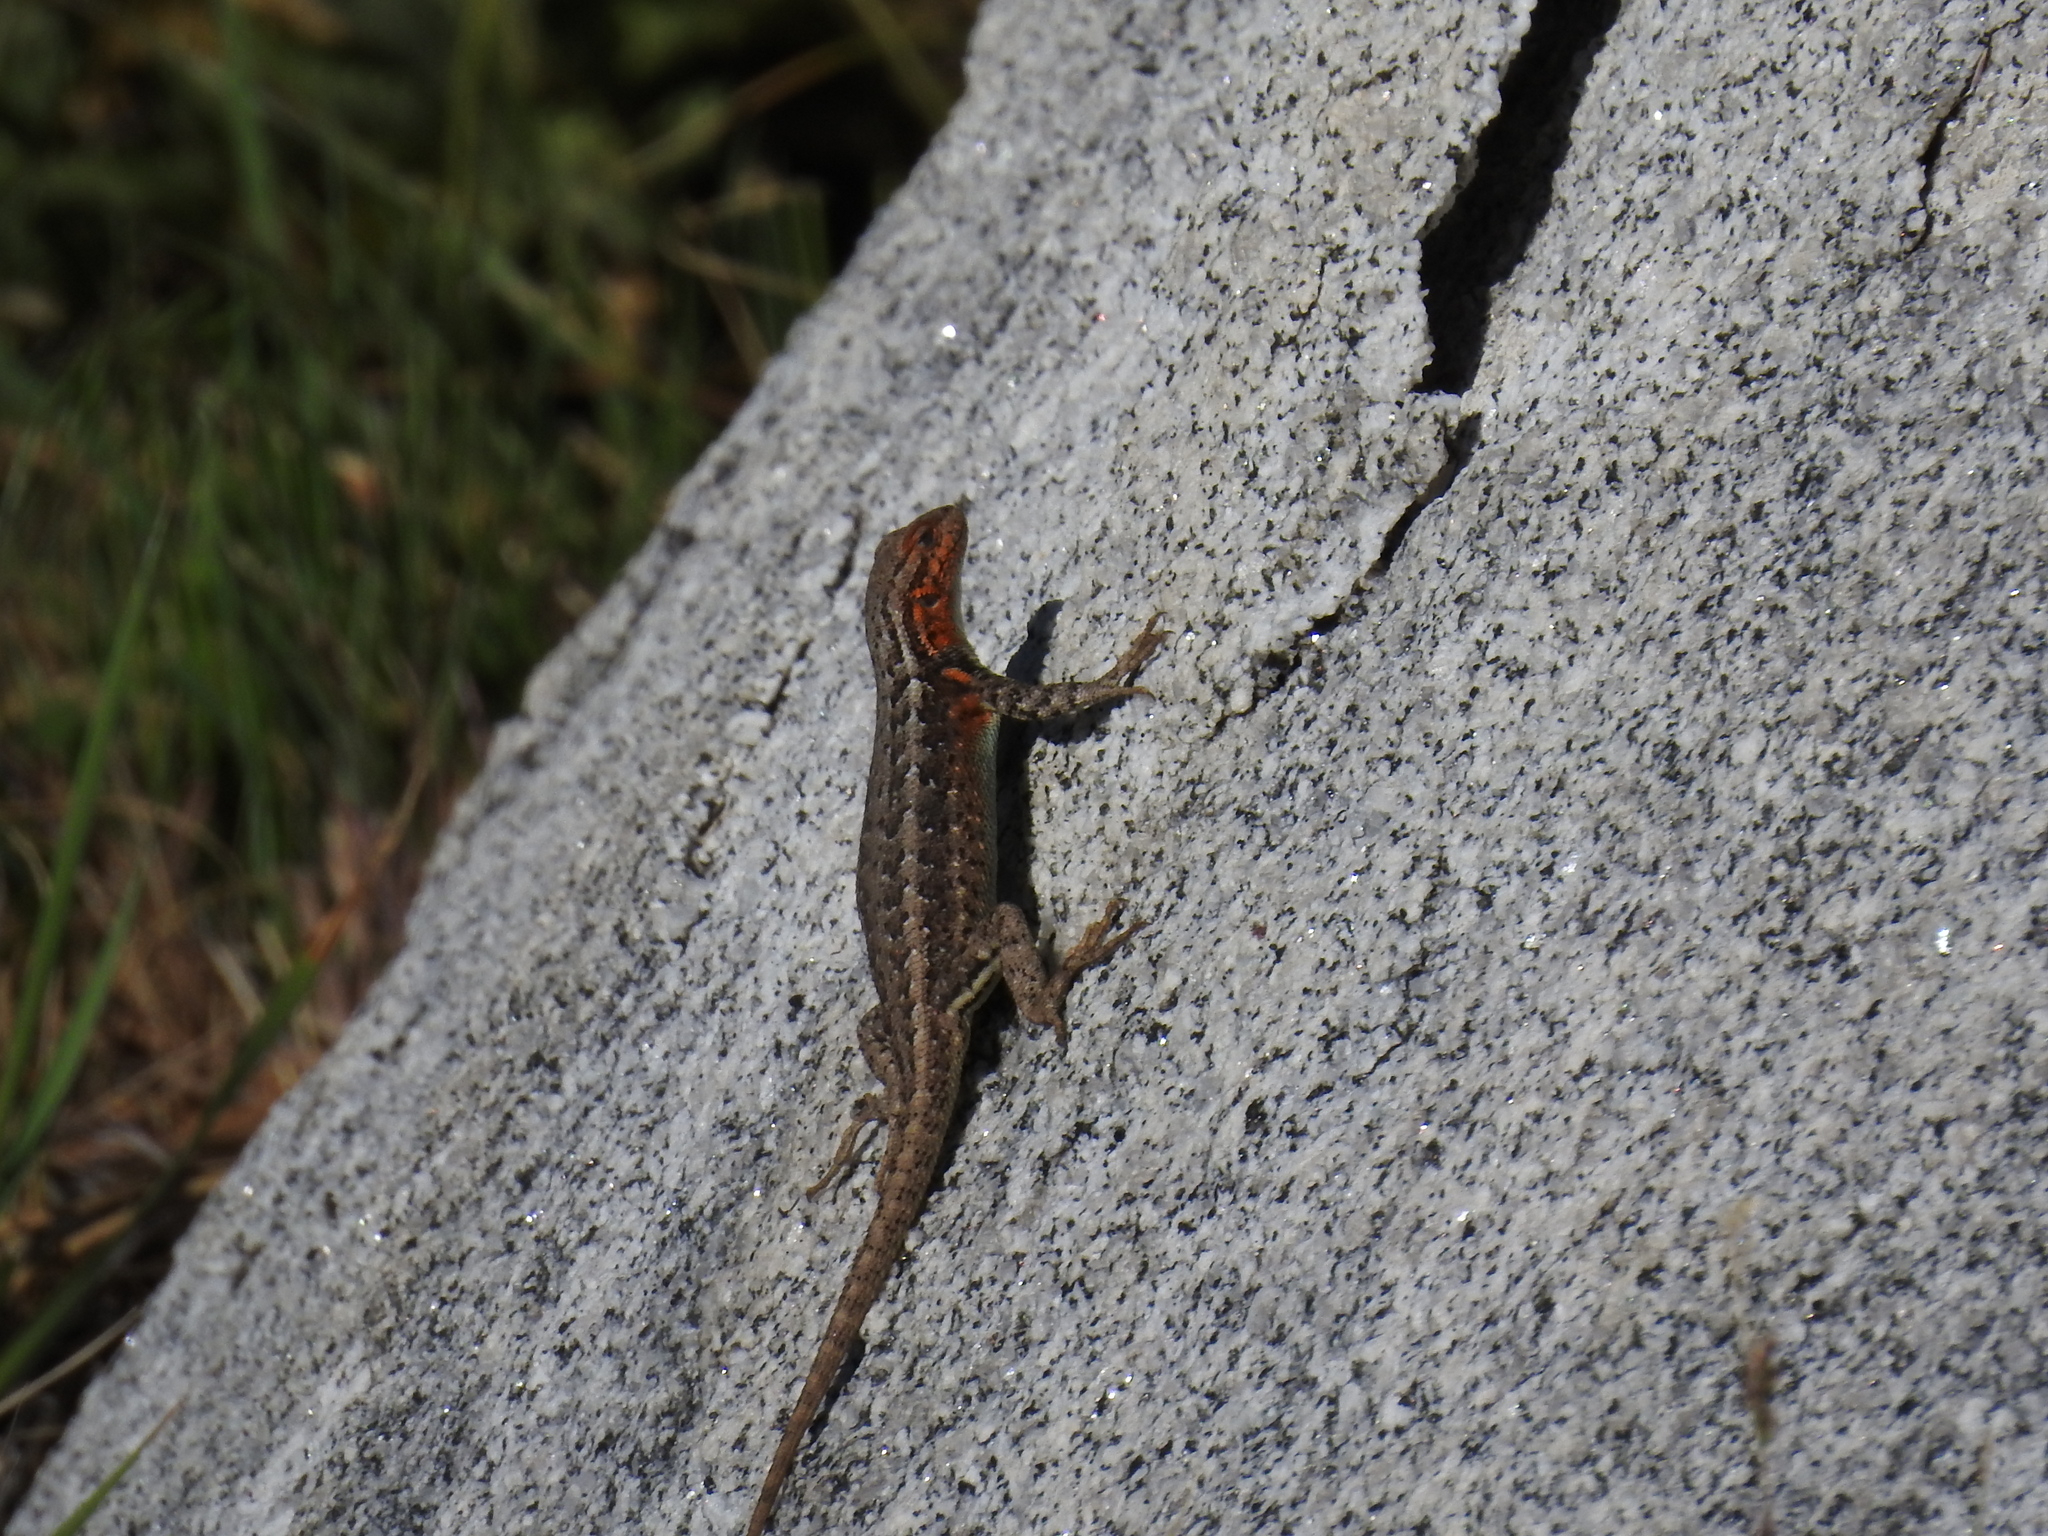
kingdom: Animalia
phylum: Chordata
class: Squamata
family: Phrynosomatidae
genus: Sceloporus
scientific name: Sceloporus graciosus
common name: Sagebrush lizard
